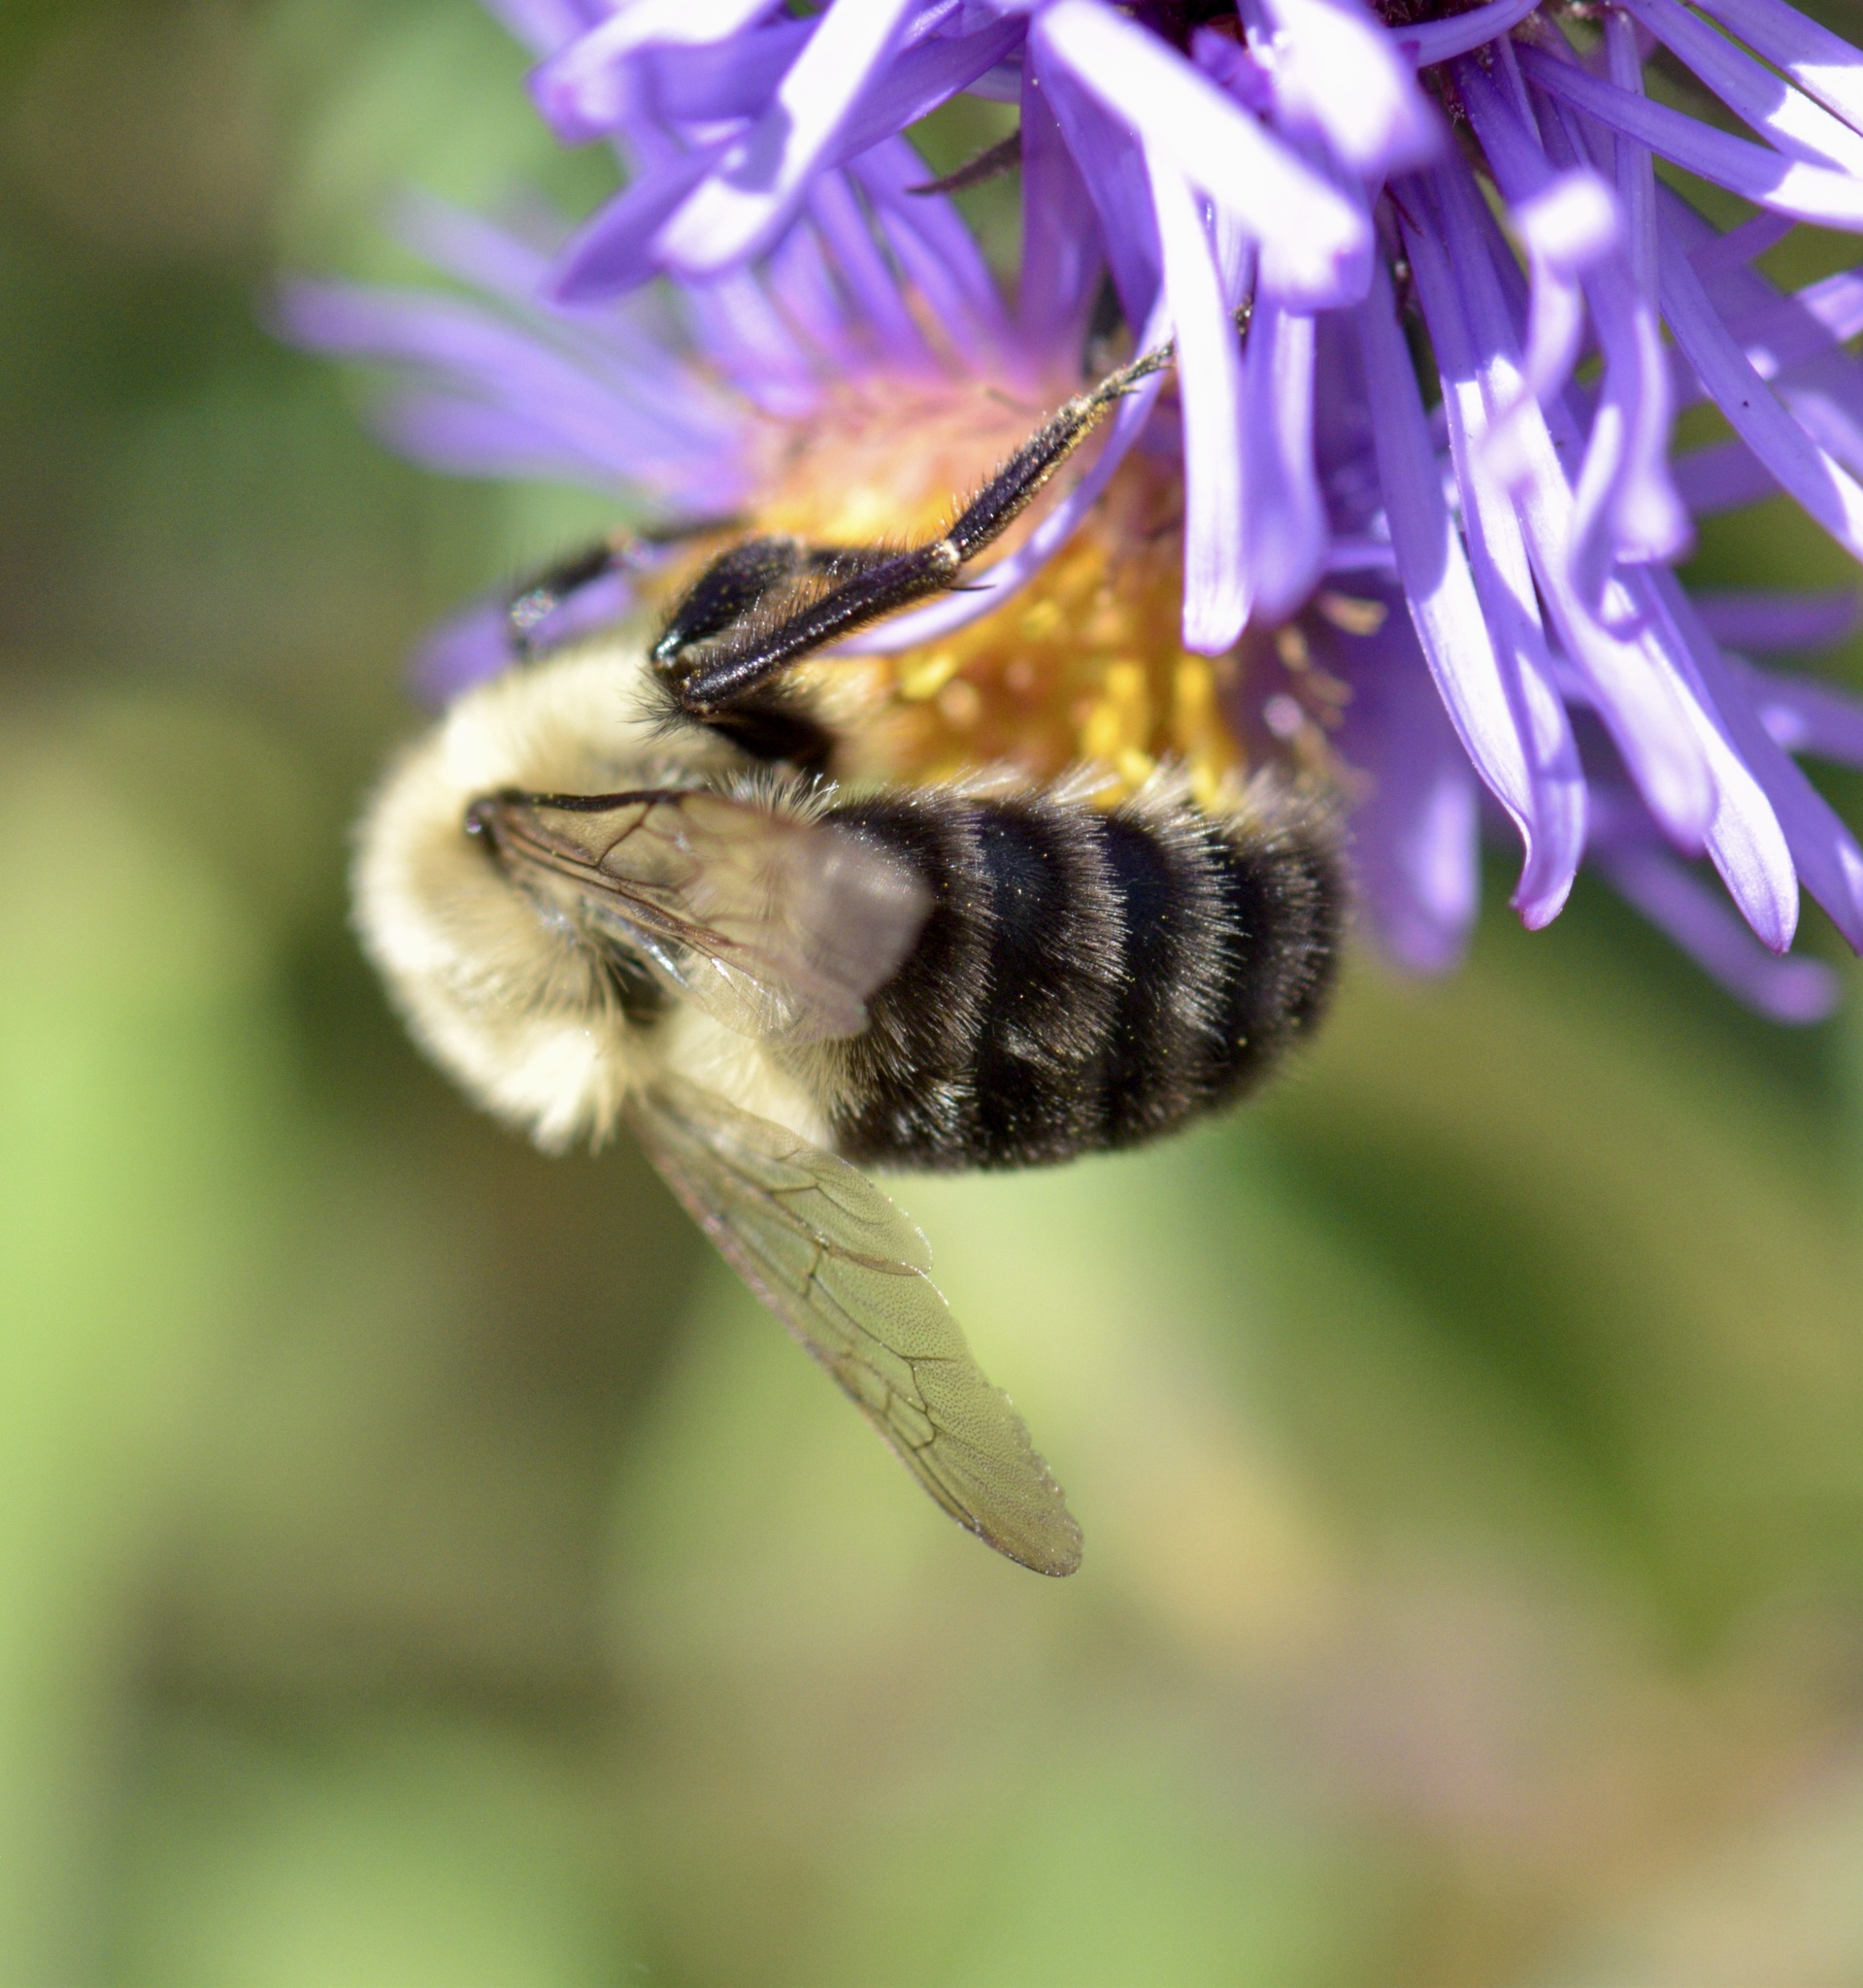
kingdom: Animalia
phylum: Arthropoda
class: Insecta
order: Hymenoptera
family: Apidae
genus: Bombus
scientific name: Bombus impatiens
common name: Common eastern bumble bee
